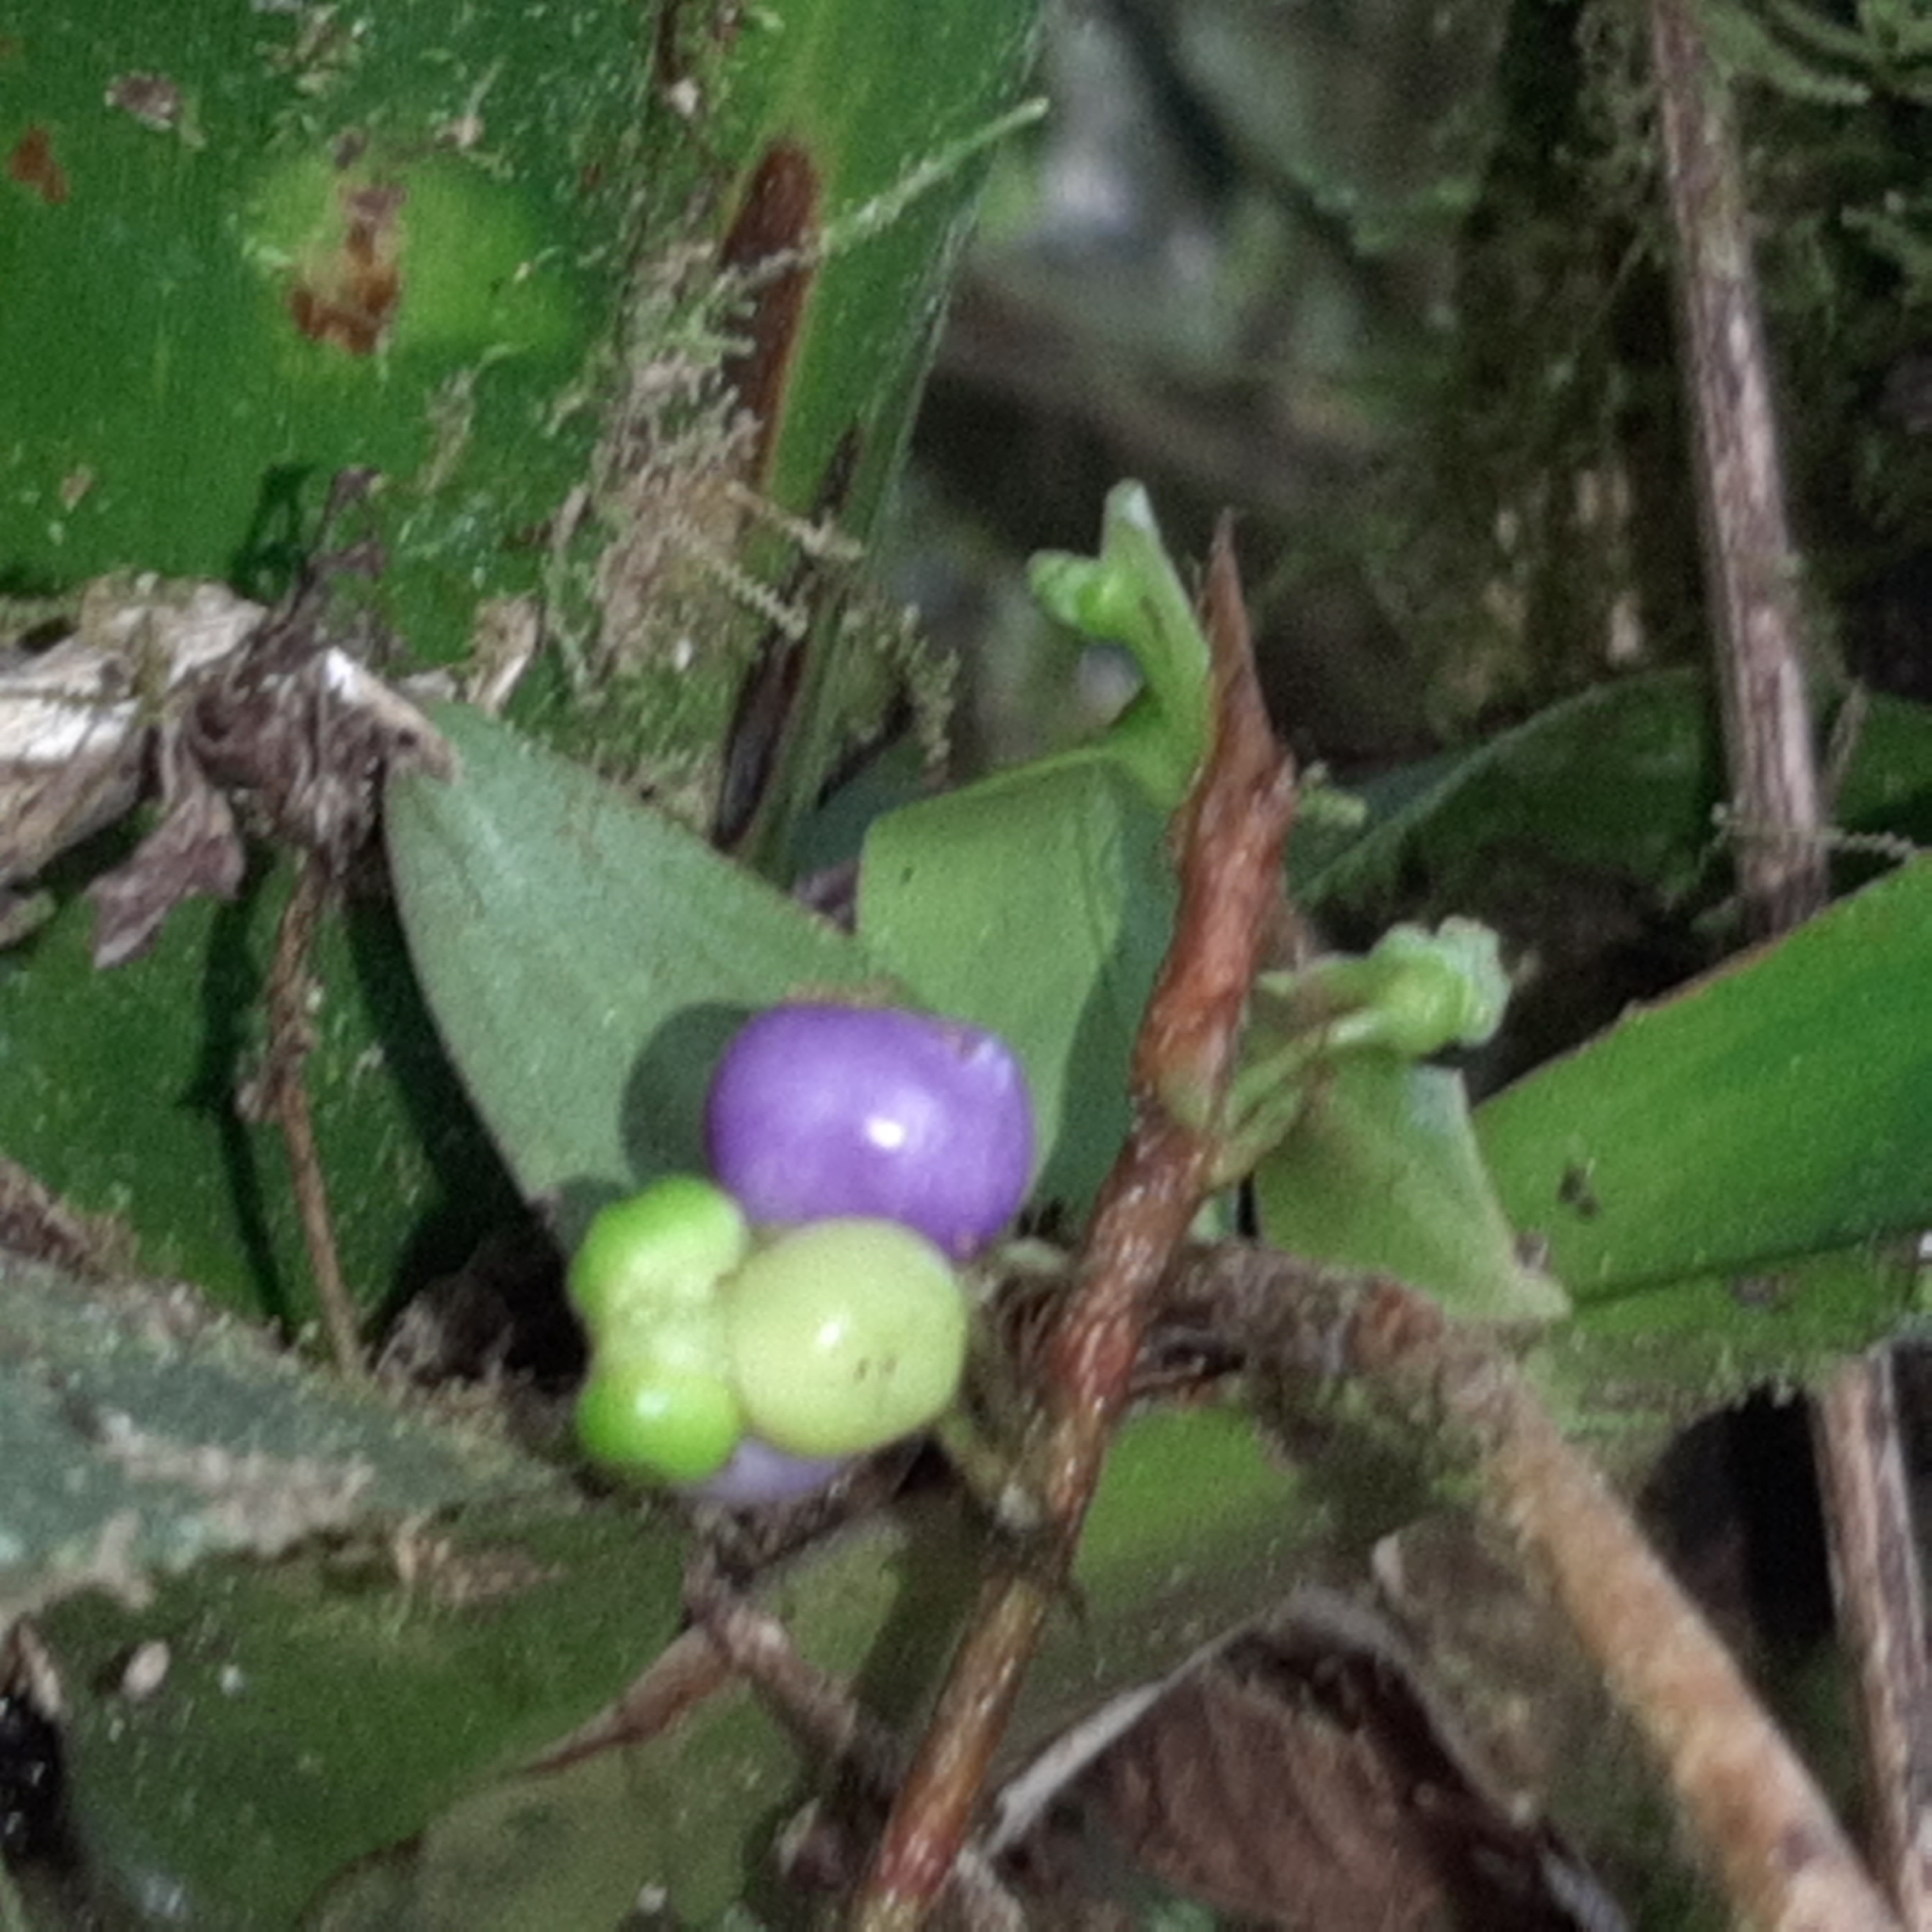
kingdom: Plantae
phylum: Tracheophyta
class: Liliopsida
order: Alismatales
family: Araceae
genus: Anthurium
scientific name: Anthurium scandens
